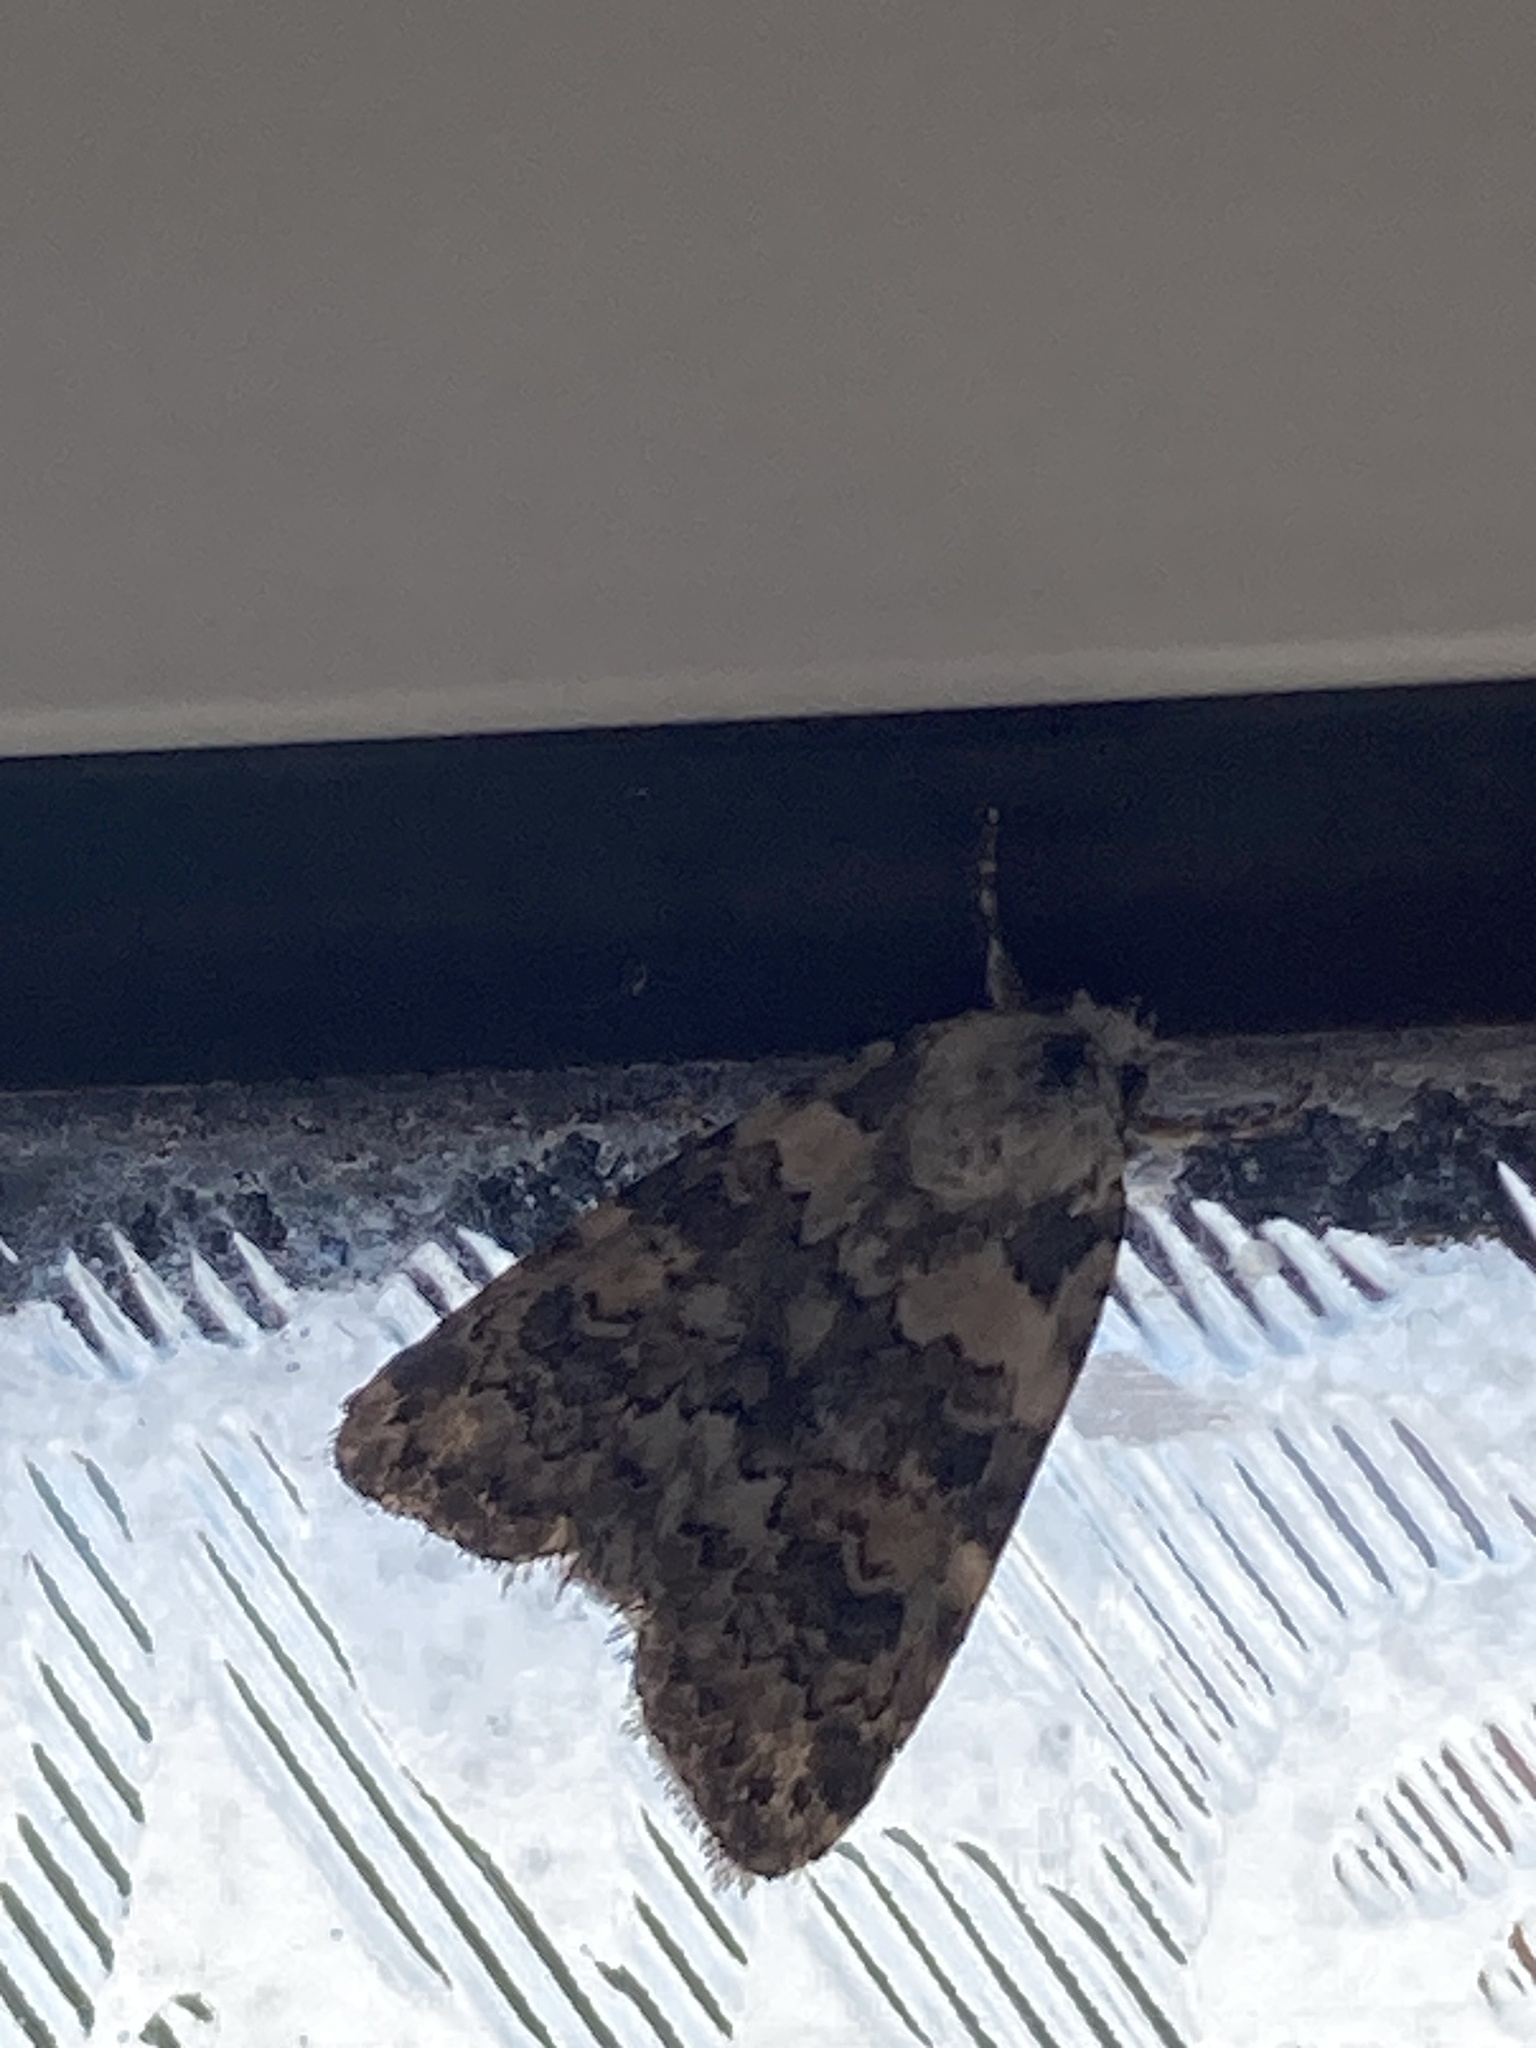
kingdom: Animalia
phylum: Arthropoda
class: Insecta
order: Lepidoptera
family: Noctuidae
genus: Bryophila
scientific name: Bryophila domestica
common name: Marbled beauty
